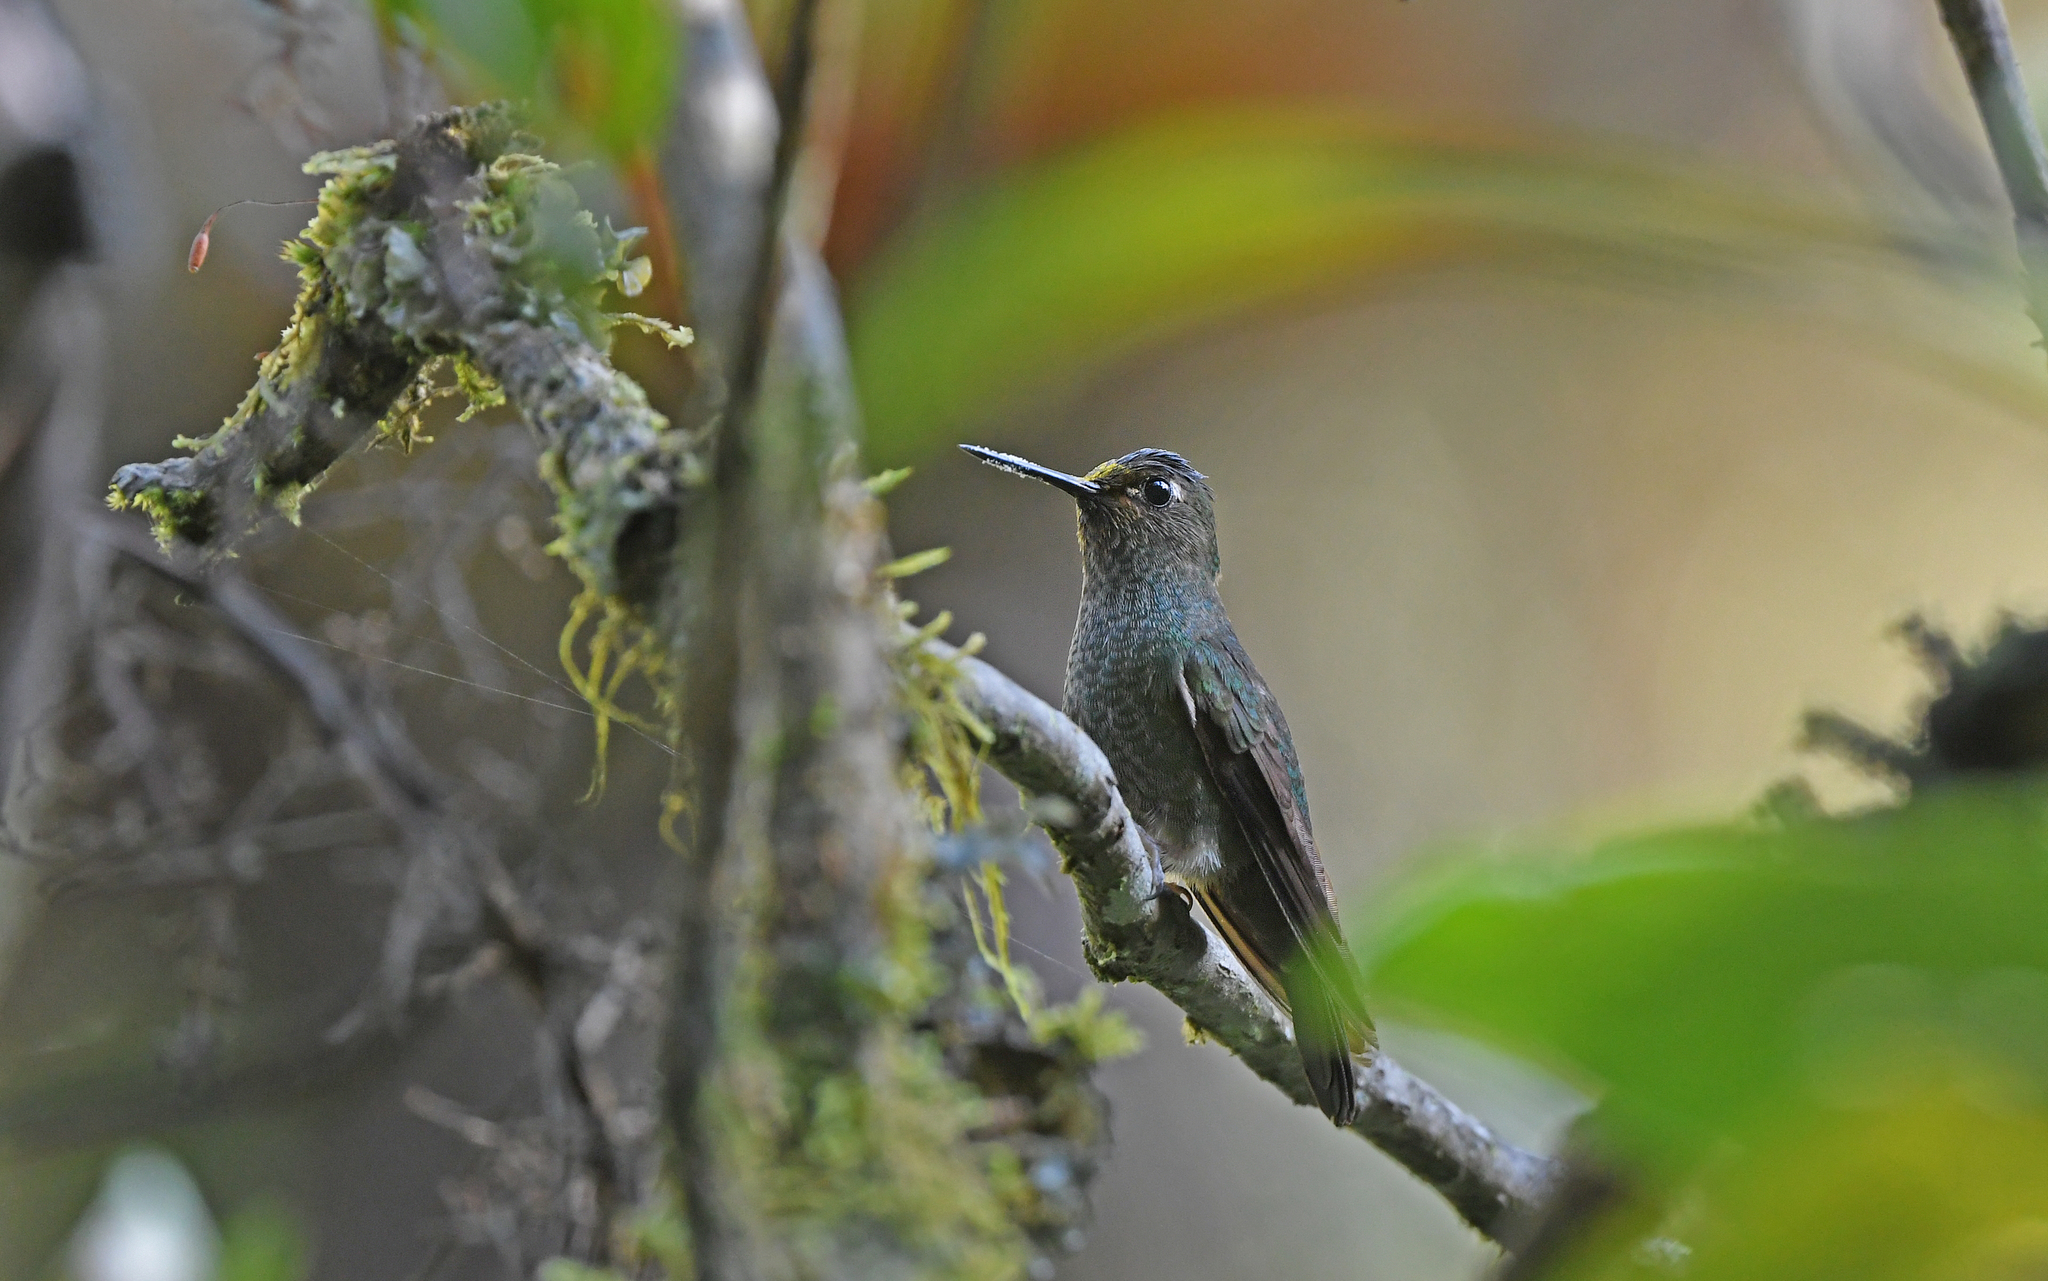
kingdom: Animalia
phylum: Chordata
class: Aves
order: Apodiformes
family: Trochilidae
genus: Haplophaedia
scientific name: Haplophaedia assimilis
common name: Buff-thighed puffleg
